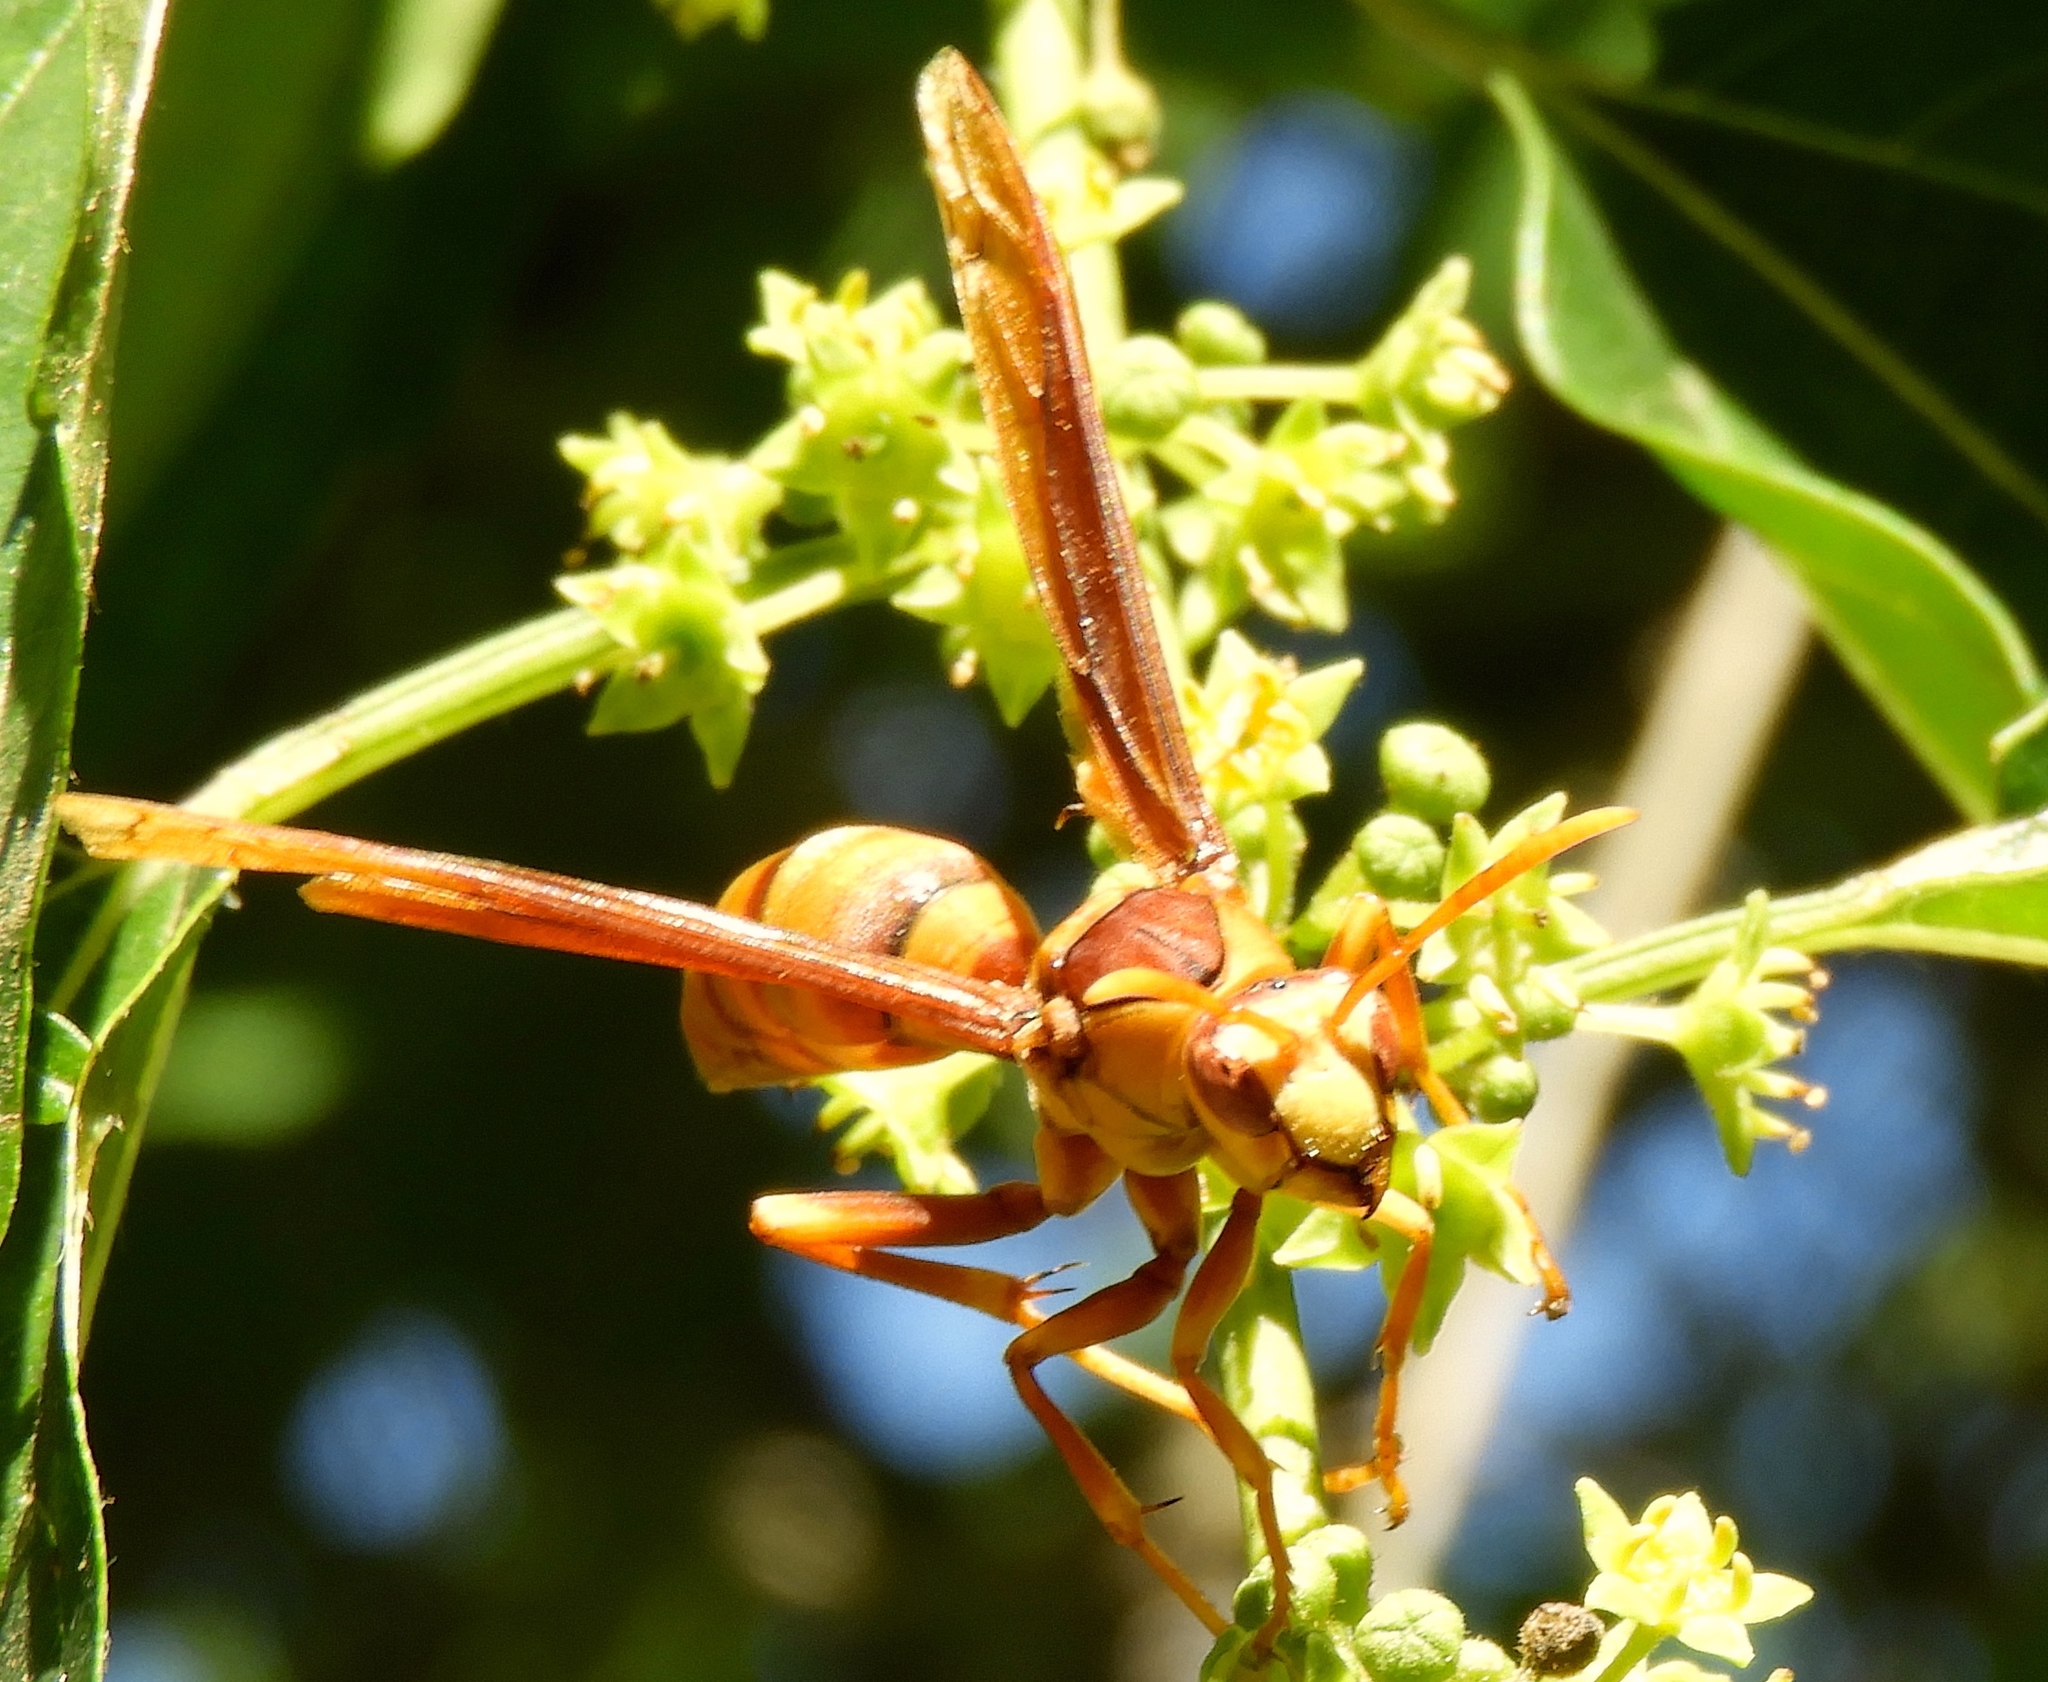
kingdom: Animalia
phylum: Arthropoda
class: Insecta
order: Hymenoptera
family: Eumenidae
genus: Polistes
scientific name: Polistes carnifex
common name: Paper wasp
